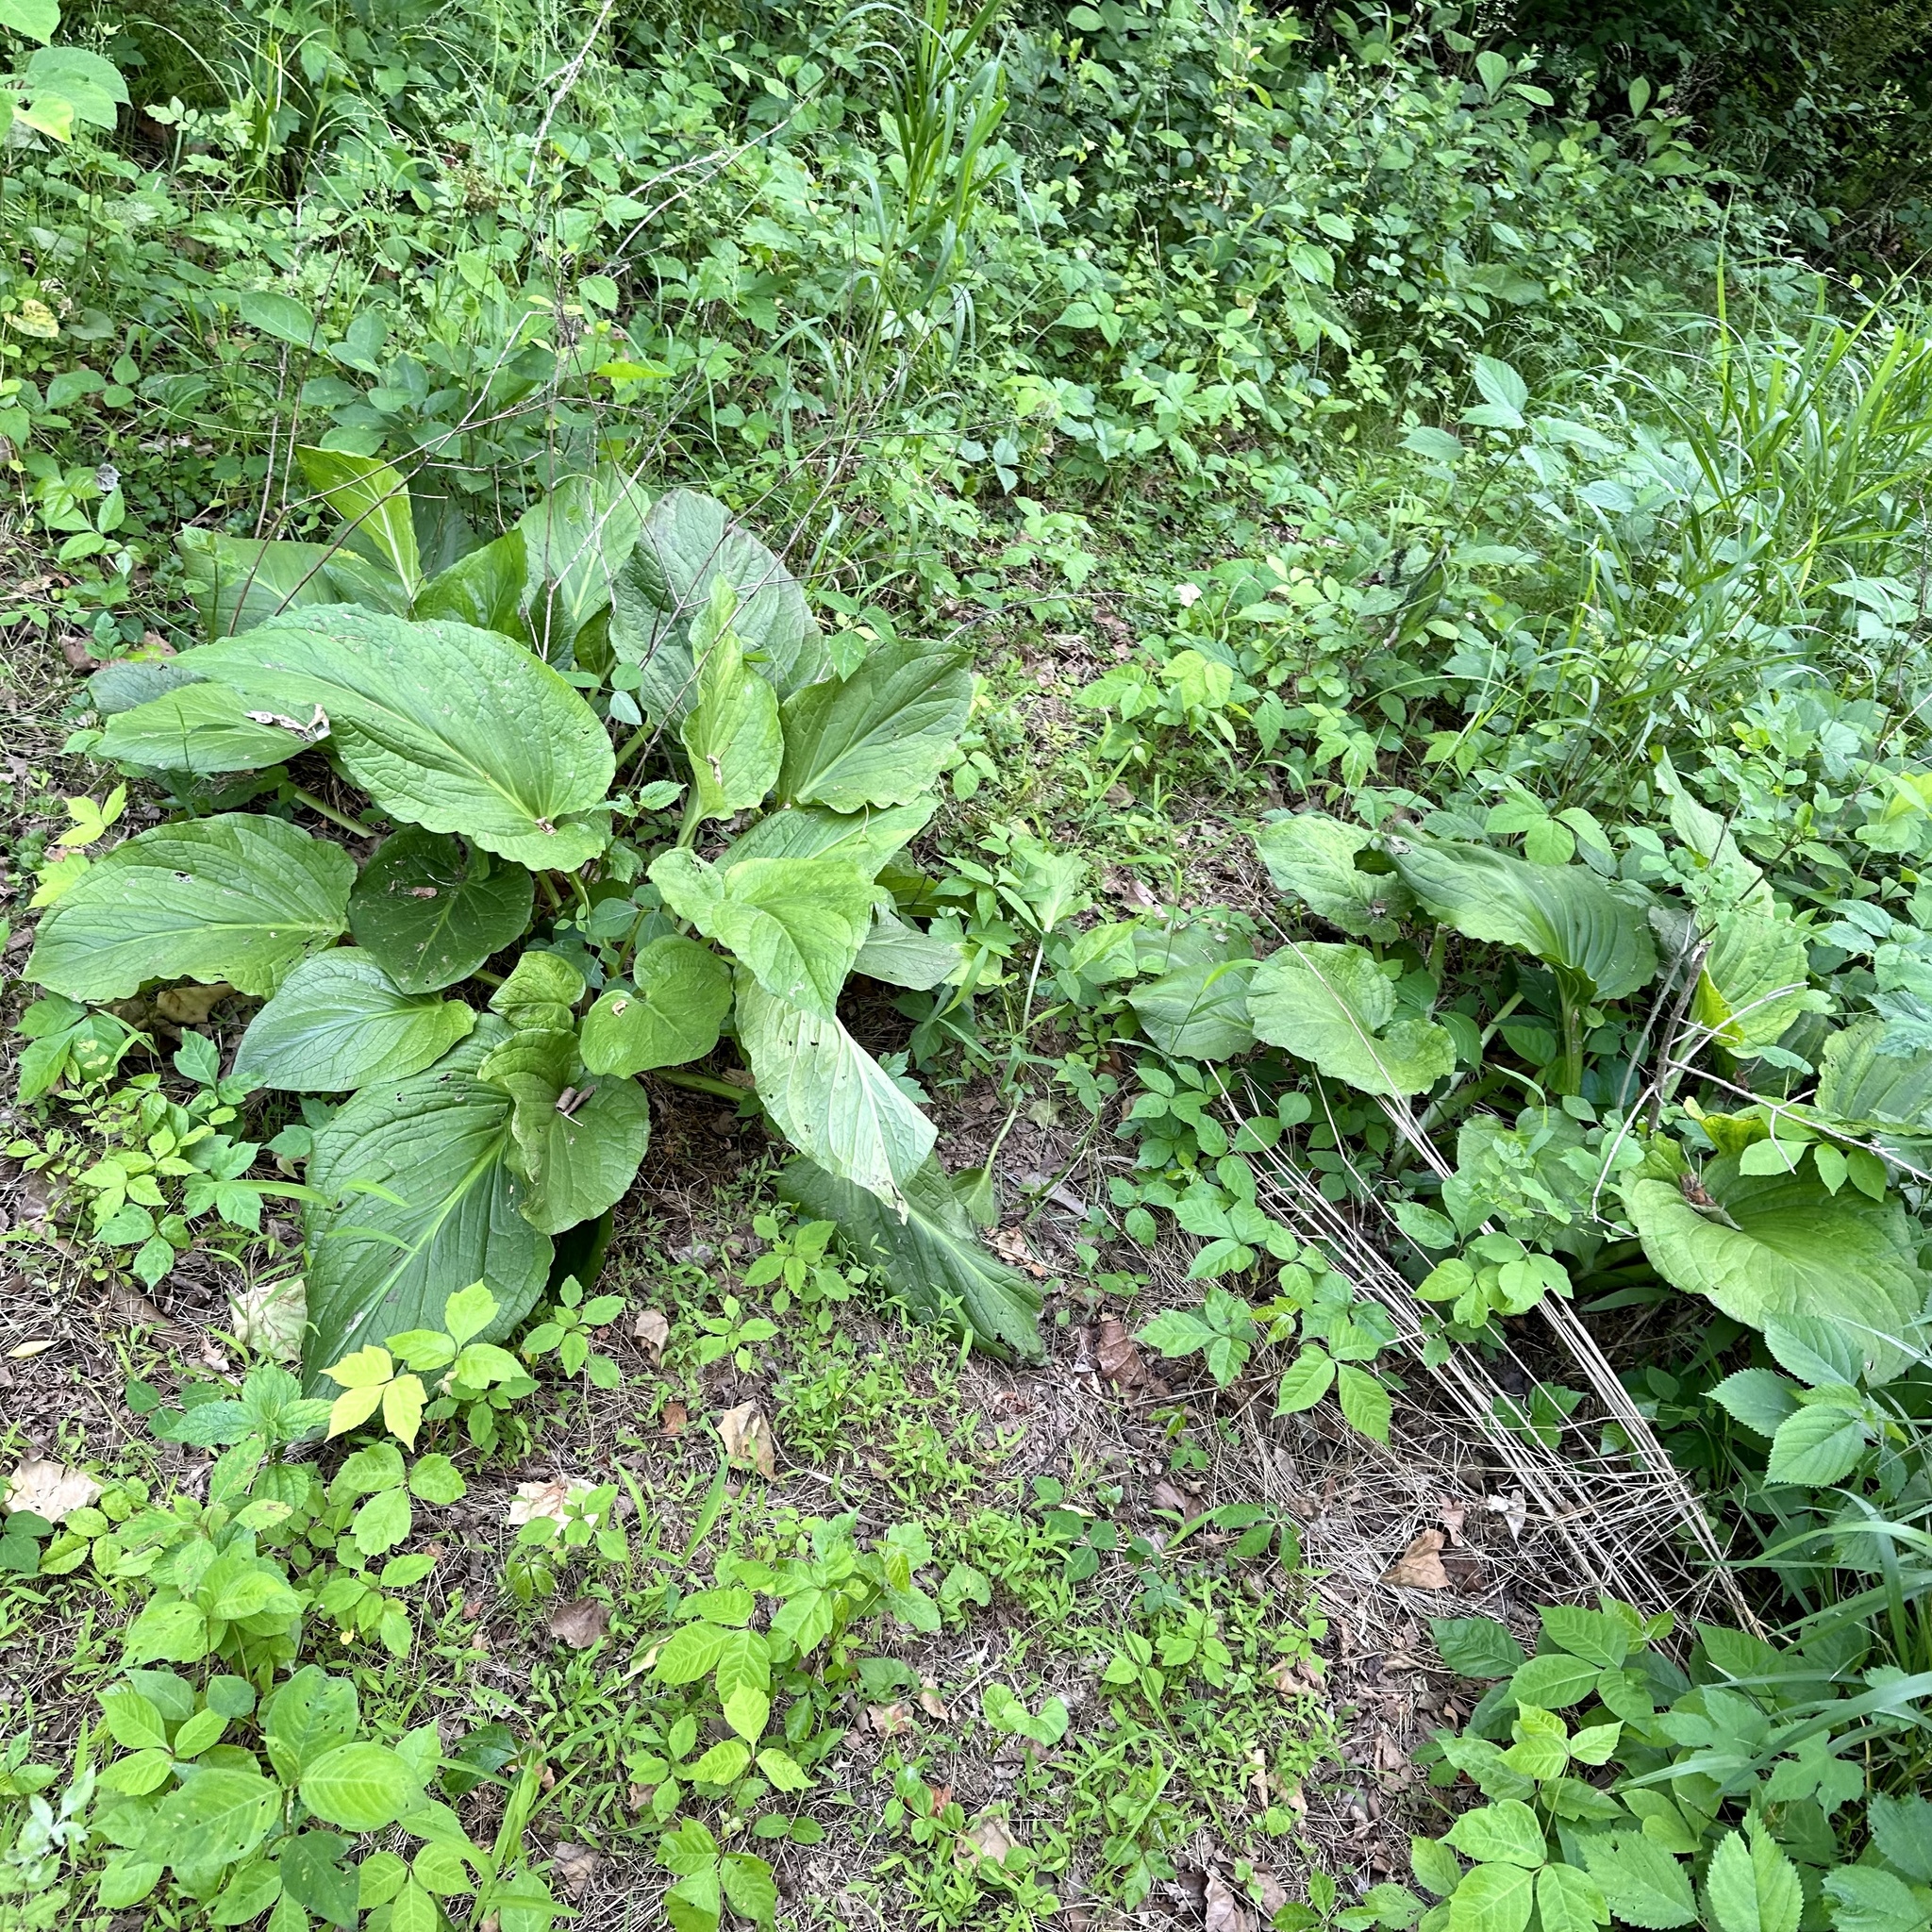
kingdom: Plantae
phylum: Tracheophyta
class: Liliopsida
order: Alismatales
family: Araceae
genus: Symplocarpus
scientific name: Symplocarpus foetidus
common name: Eastern skunk cabbage
